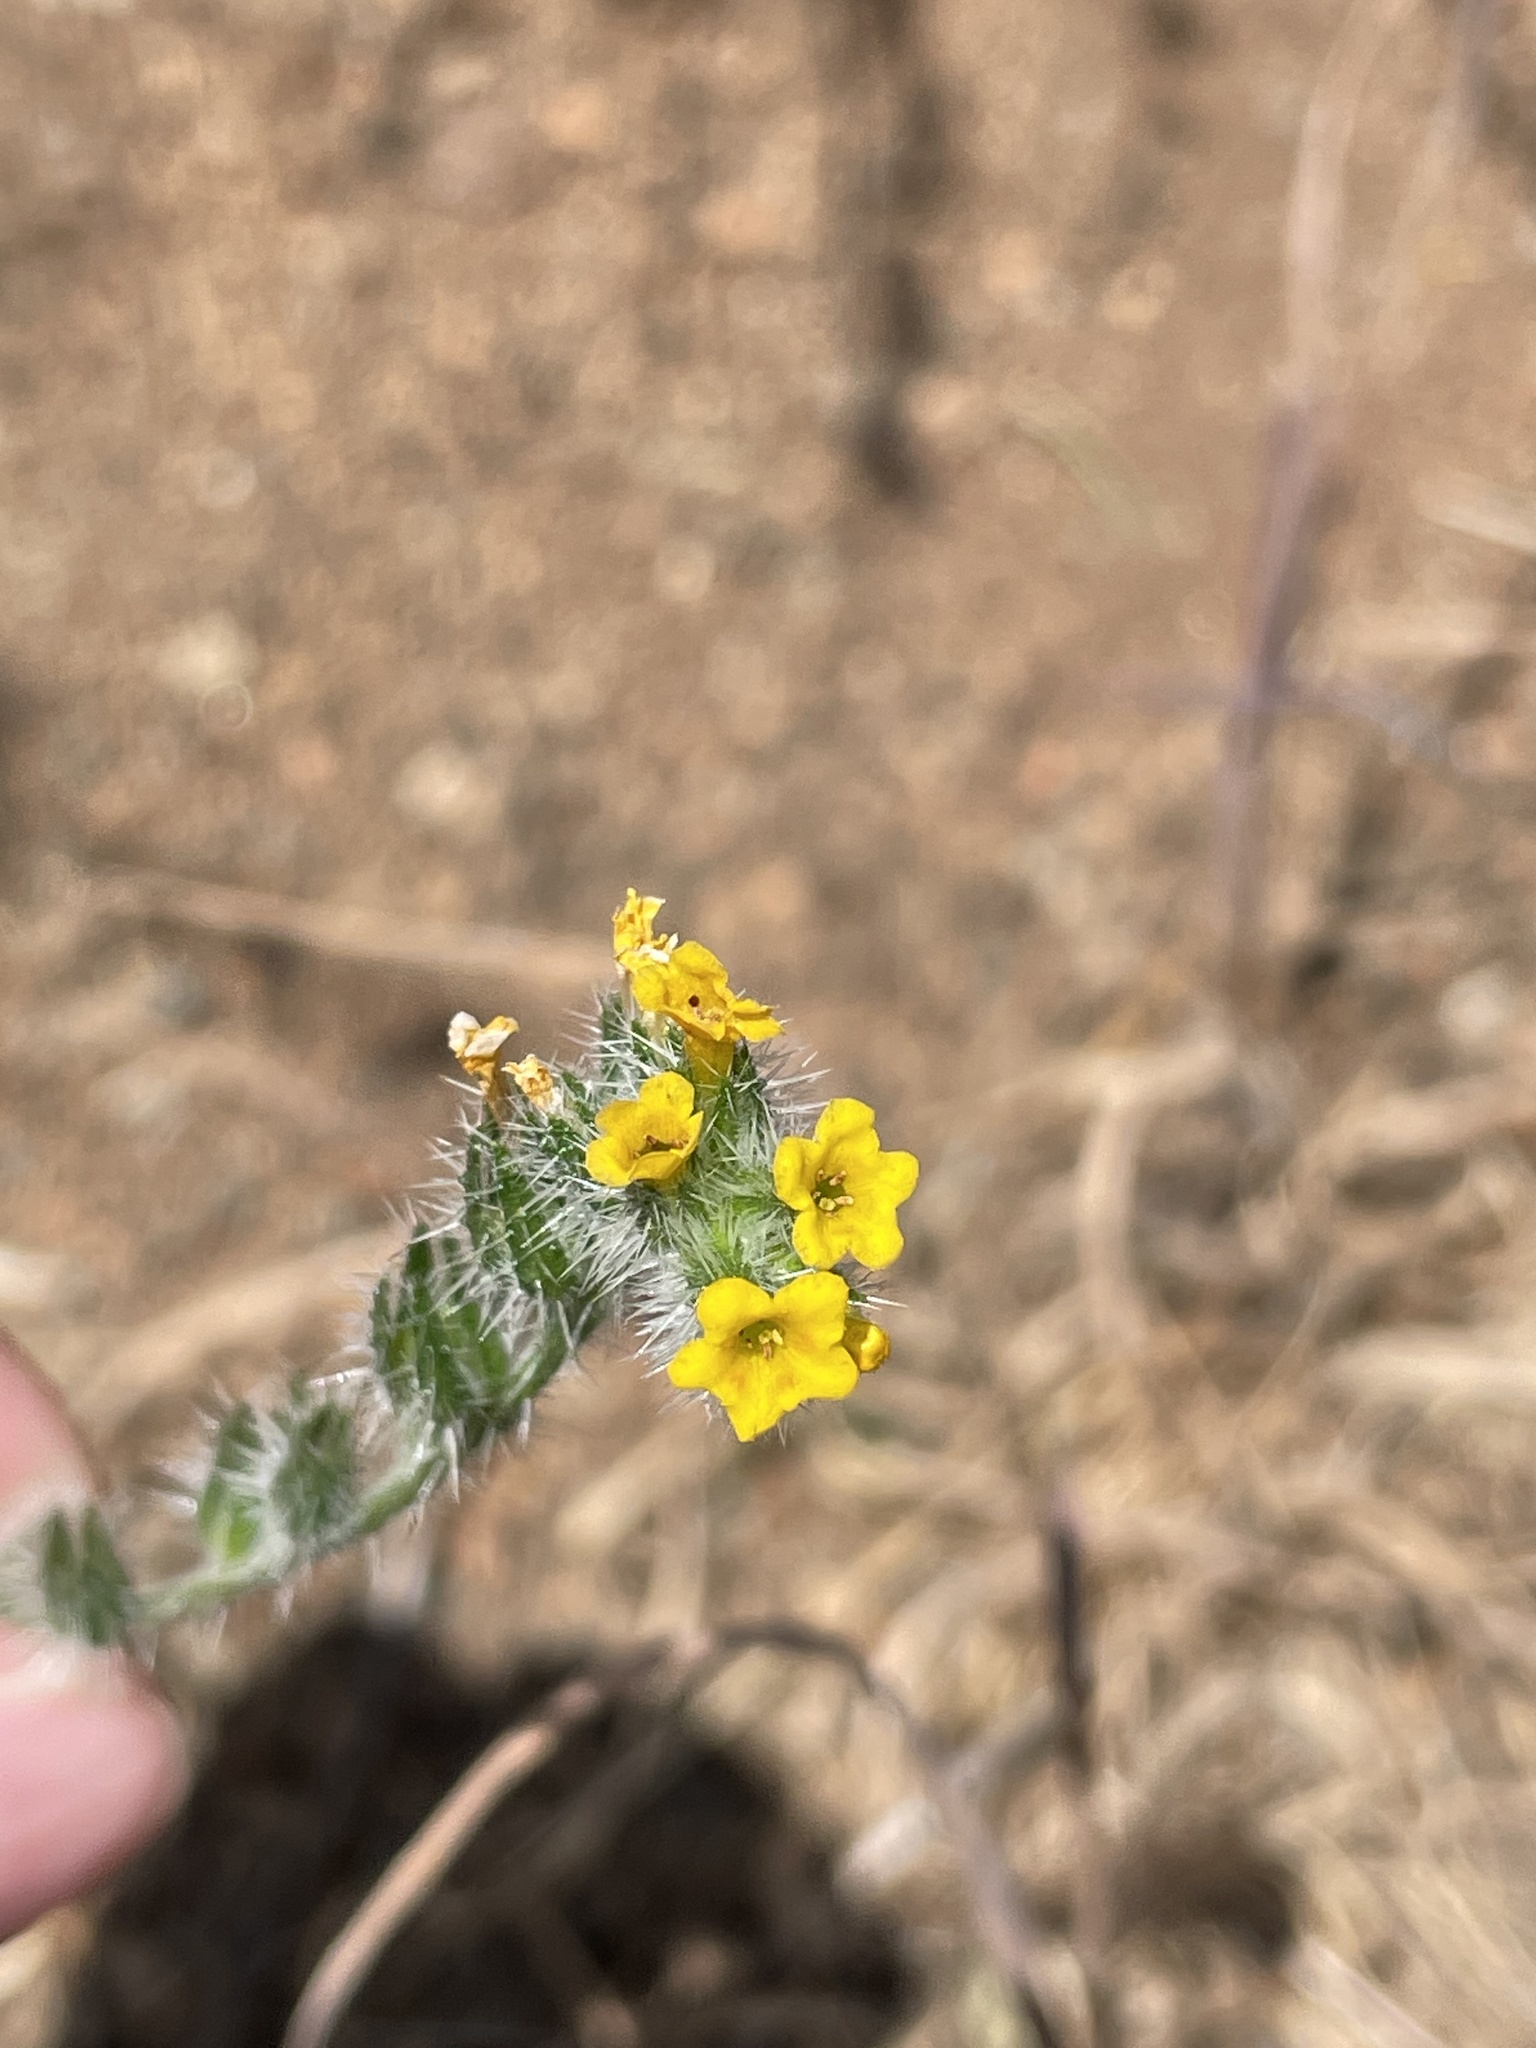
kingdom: Plantae
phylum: Tracheophyta
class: Magnoliopsida
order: Boraginales
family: Boraginaceae
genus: Amsinckia
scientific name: Amsinckia menziesii
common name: Menzies' fiddleneck
